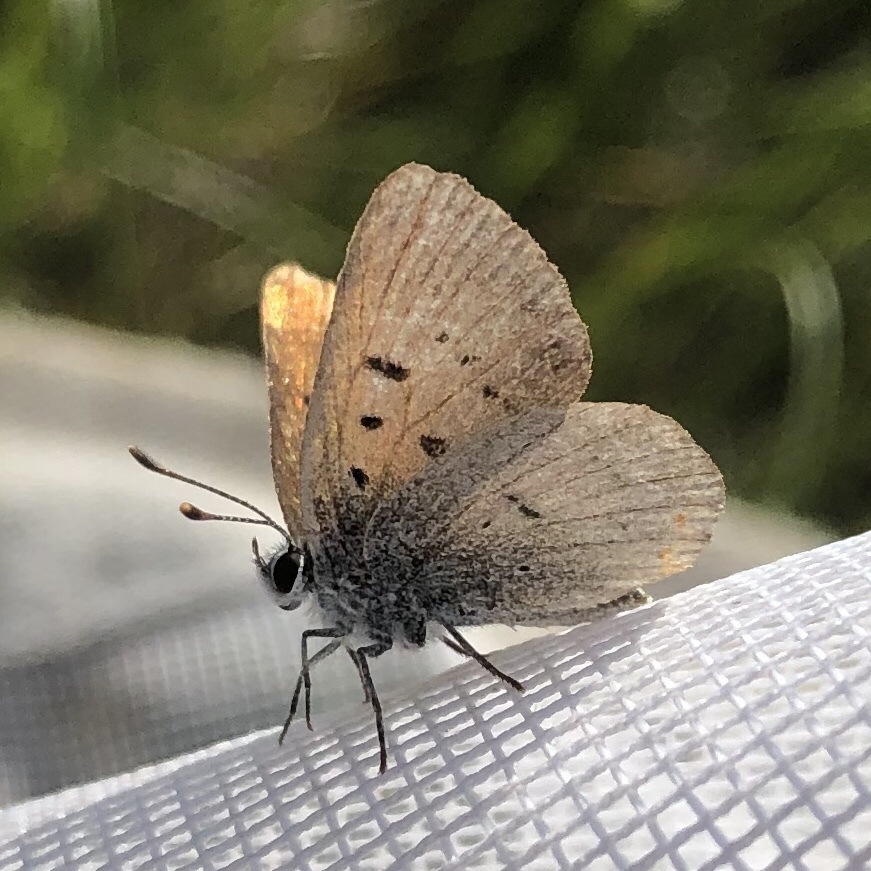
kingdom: Animalia
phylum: Arthropoda
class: Insecta
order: Lepidoptera
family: Lycaenidae
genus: Tharsalea
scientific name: Tharsalea epixanthe
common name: Bog copper
